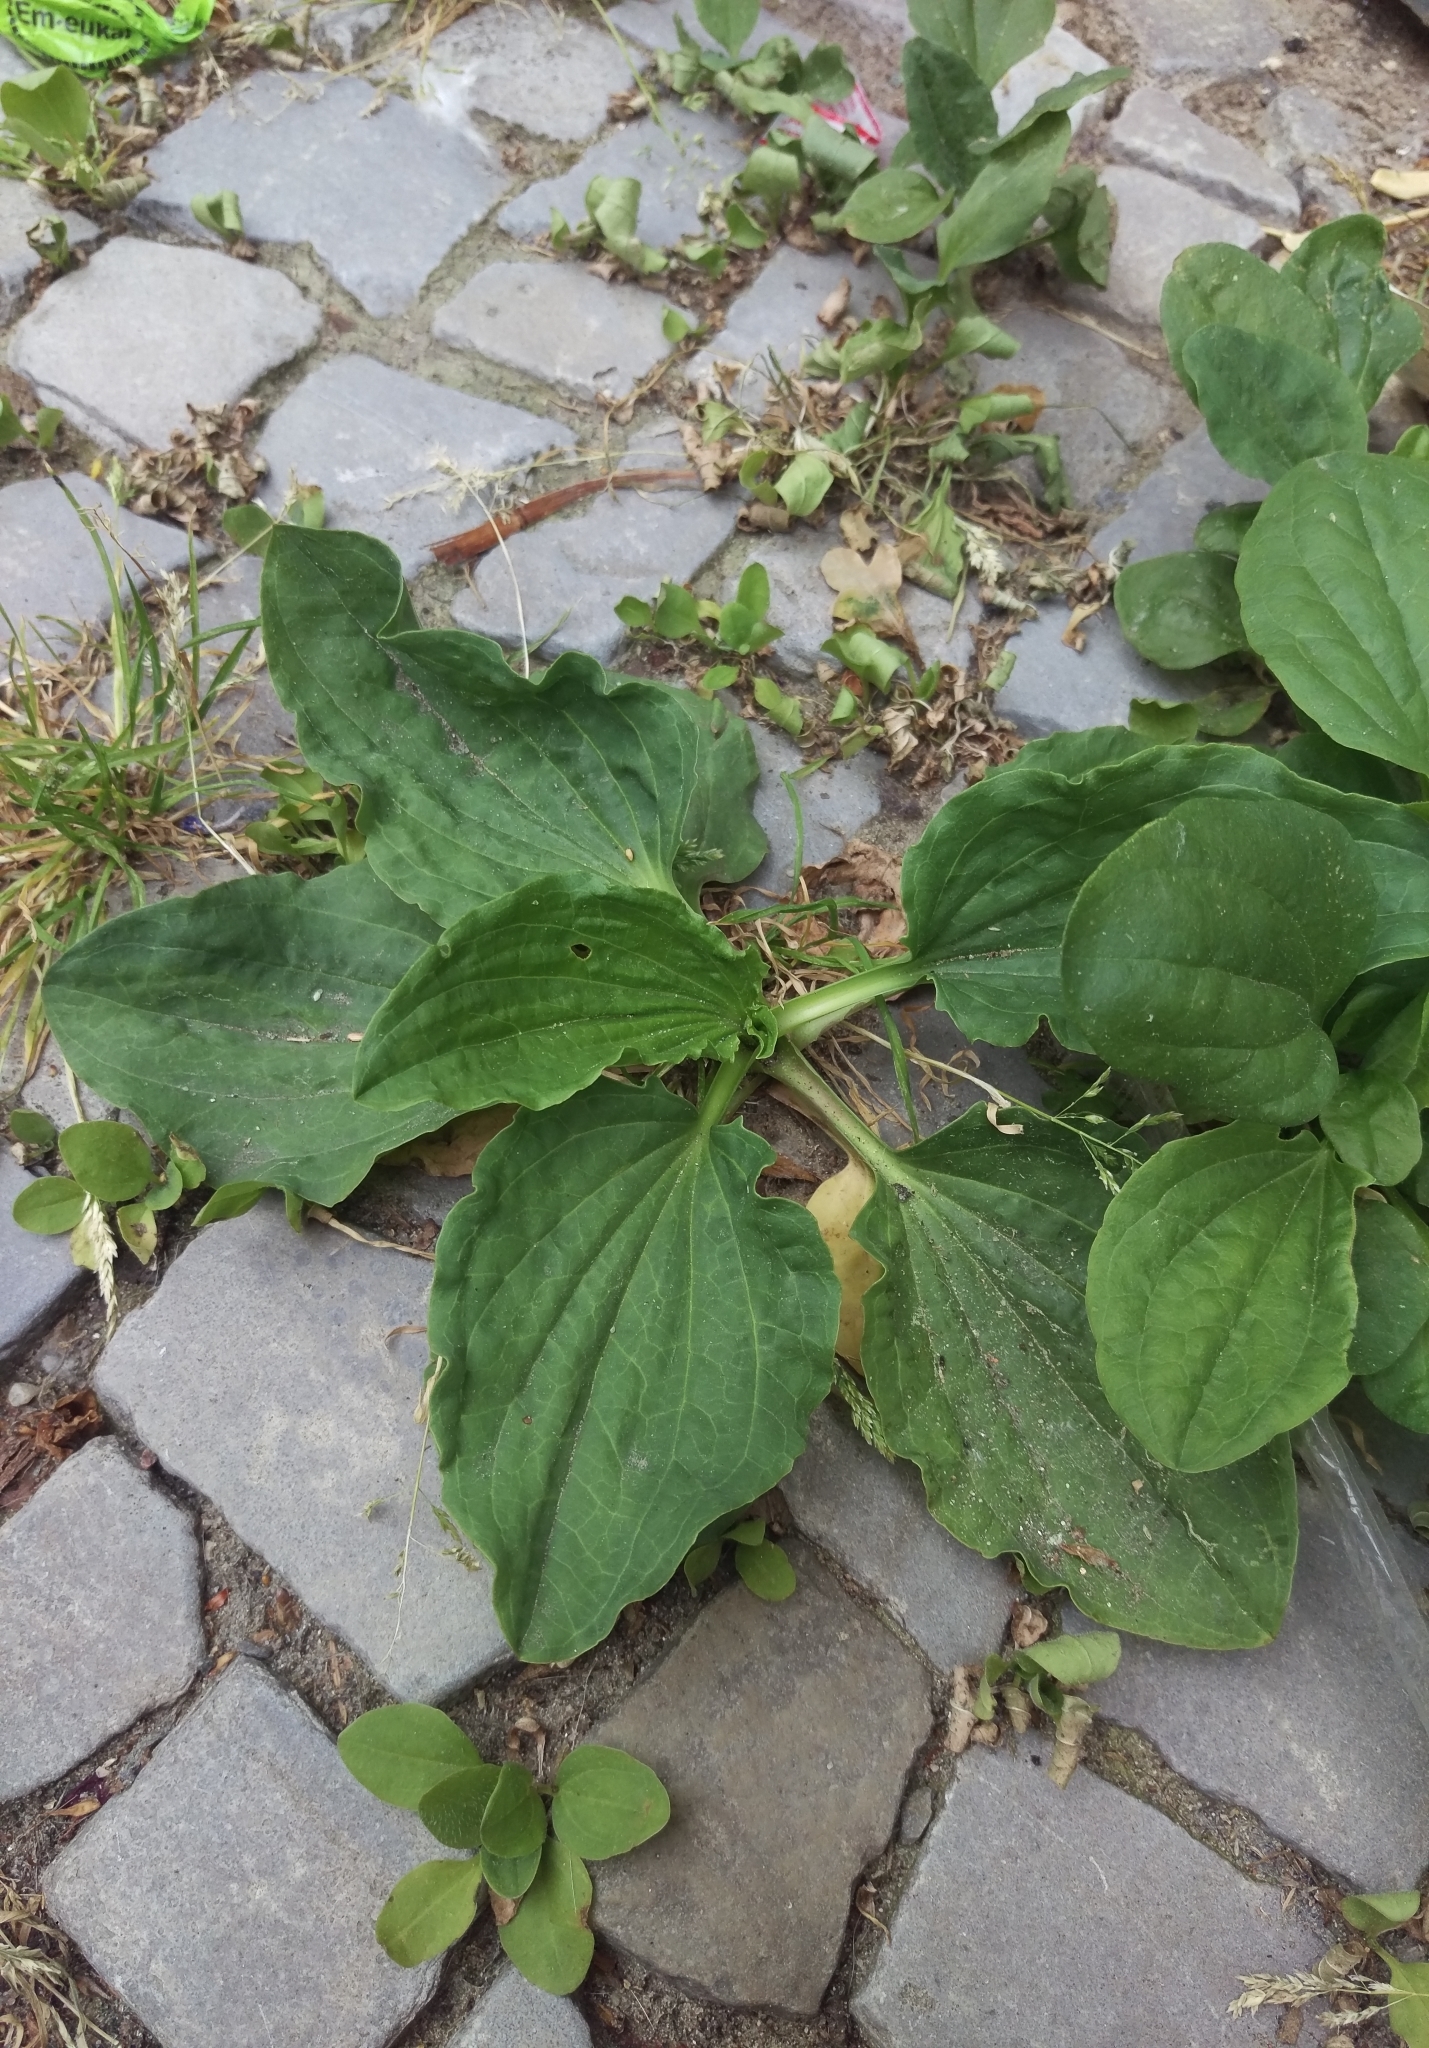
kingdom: Plantae
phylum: Tracheophyta
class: Magnoliopsida
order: Lamiales
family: Plantaginaceae
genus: Plantago
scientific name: Plantago major
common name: Common plantain
